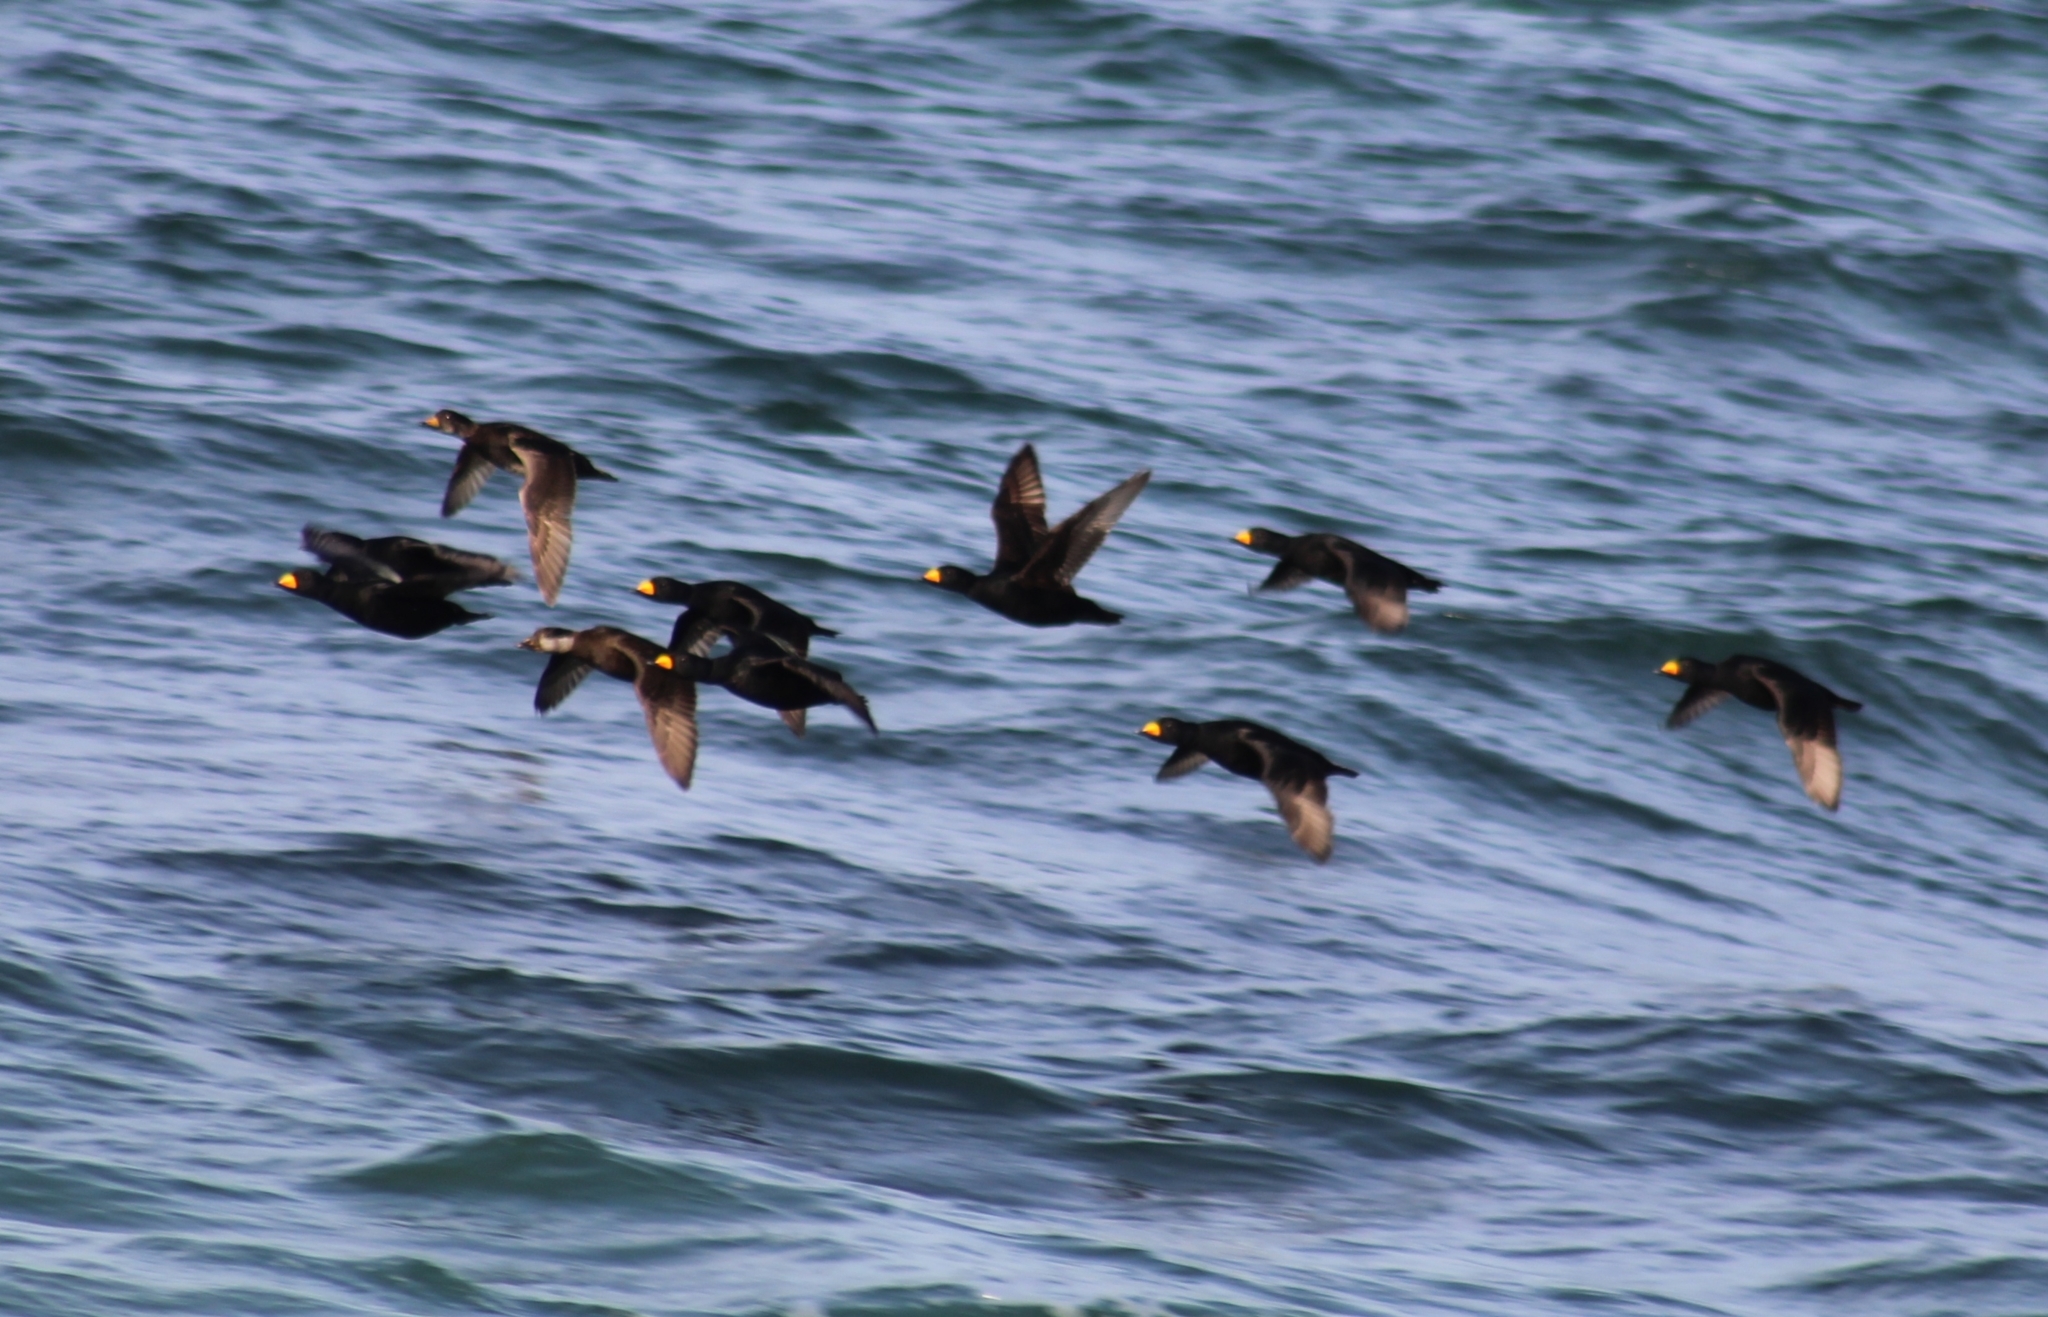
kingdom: Animalia
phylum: Chordata
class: Aves
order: Anseriformes
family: Anatidae
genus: Melanitta
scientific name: Melanitta americana
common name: Black scoter
